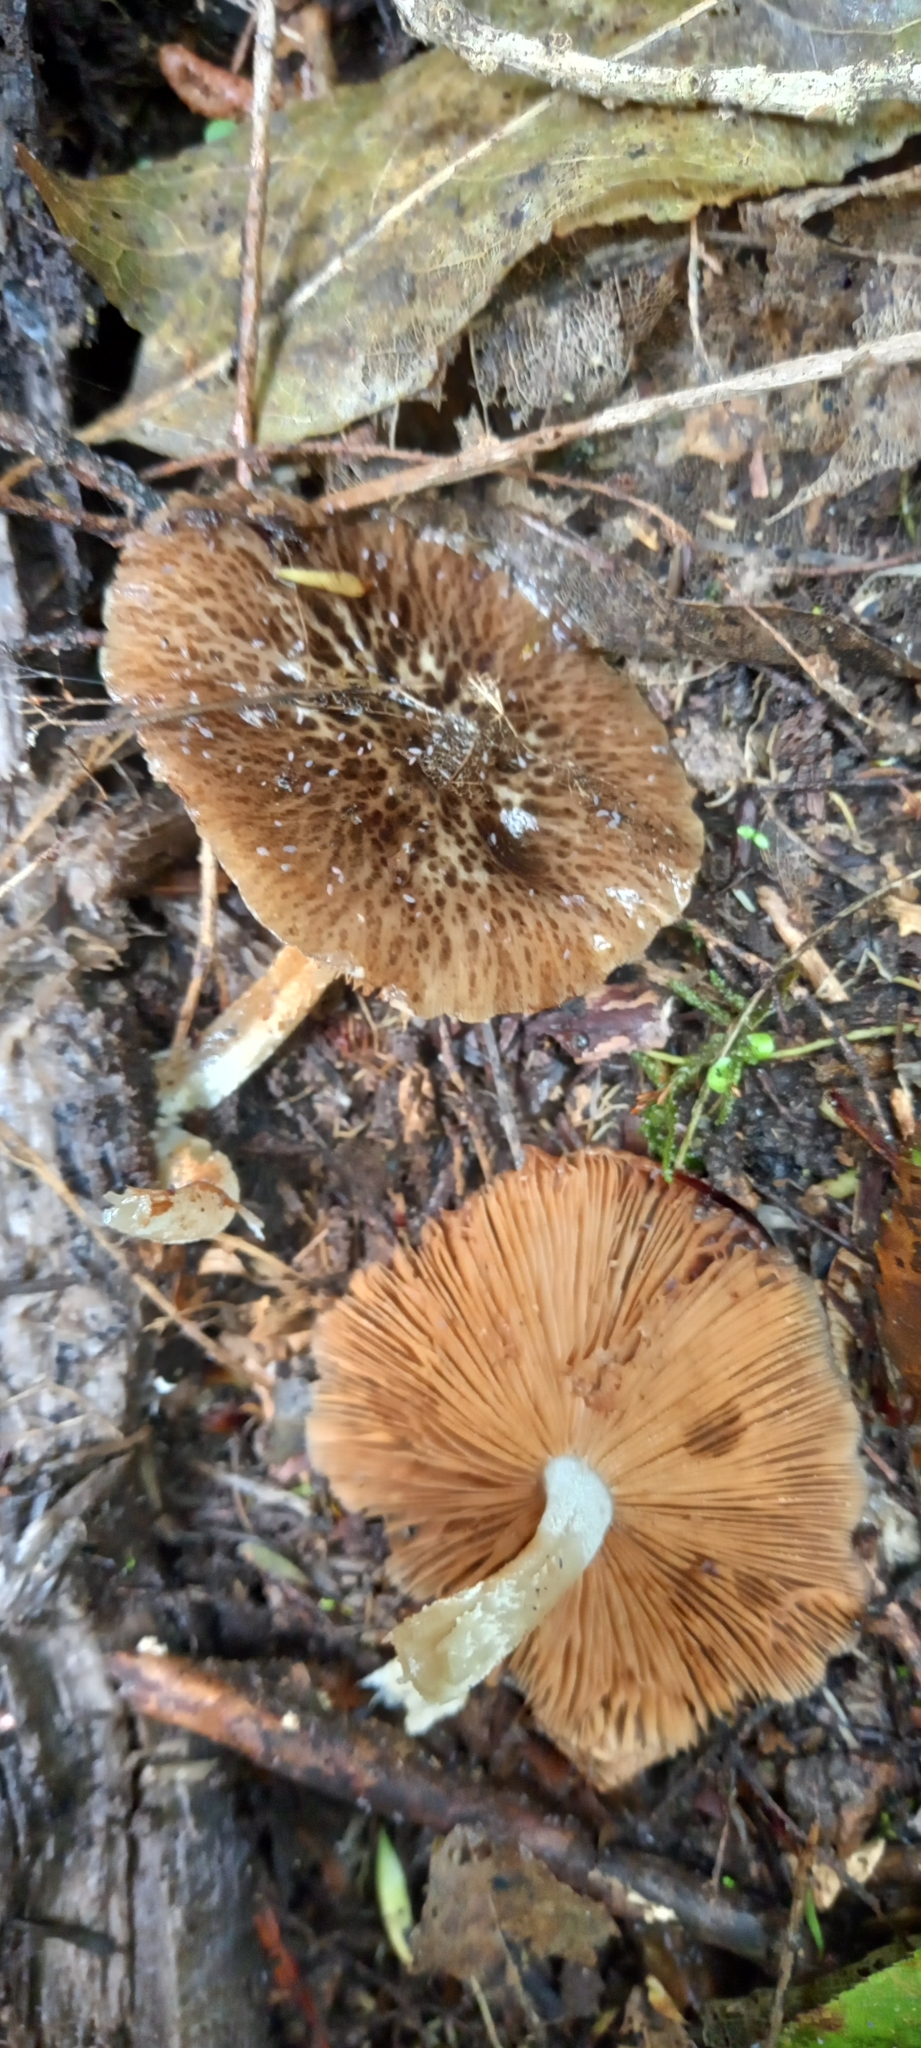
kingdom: Fungi
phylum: Basidiomycota
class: Agaricomycetes
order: Agaricales
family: Bolbitiaceae
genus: Bolbitius
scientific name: Bolbitius muscicola
